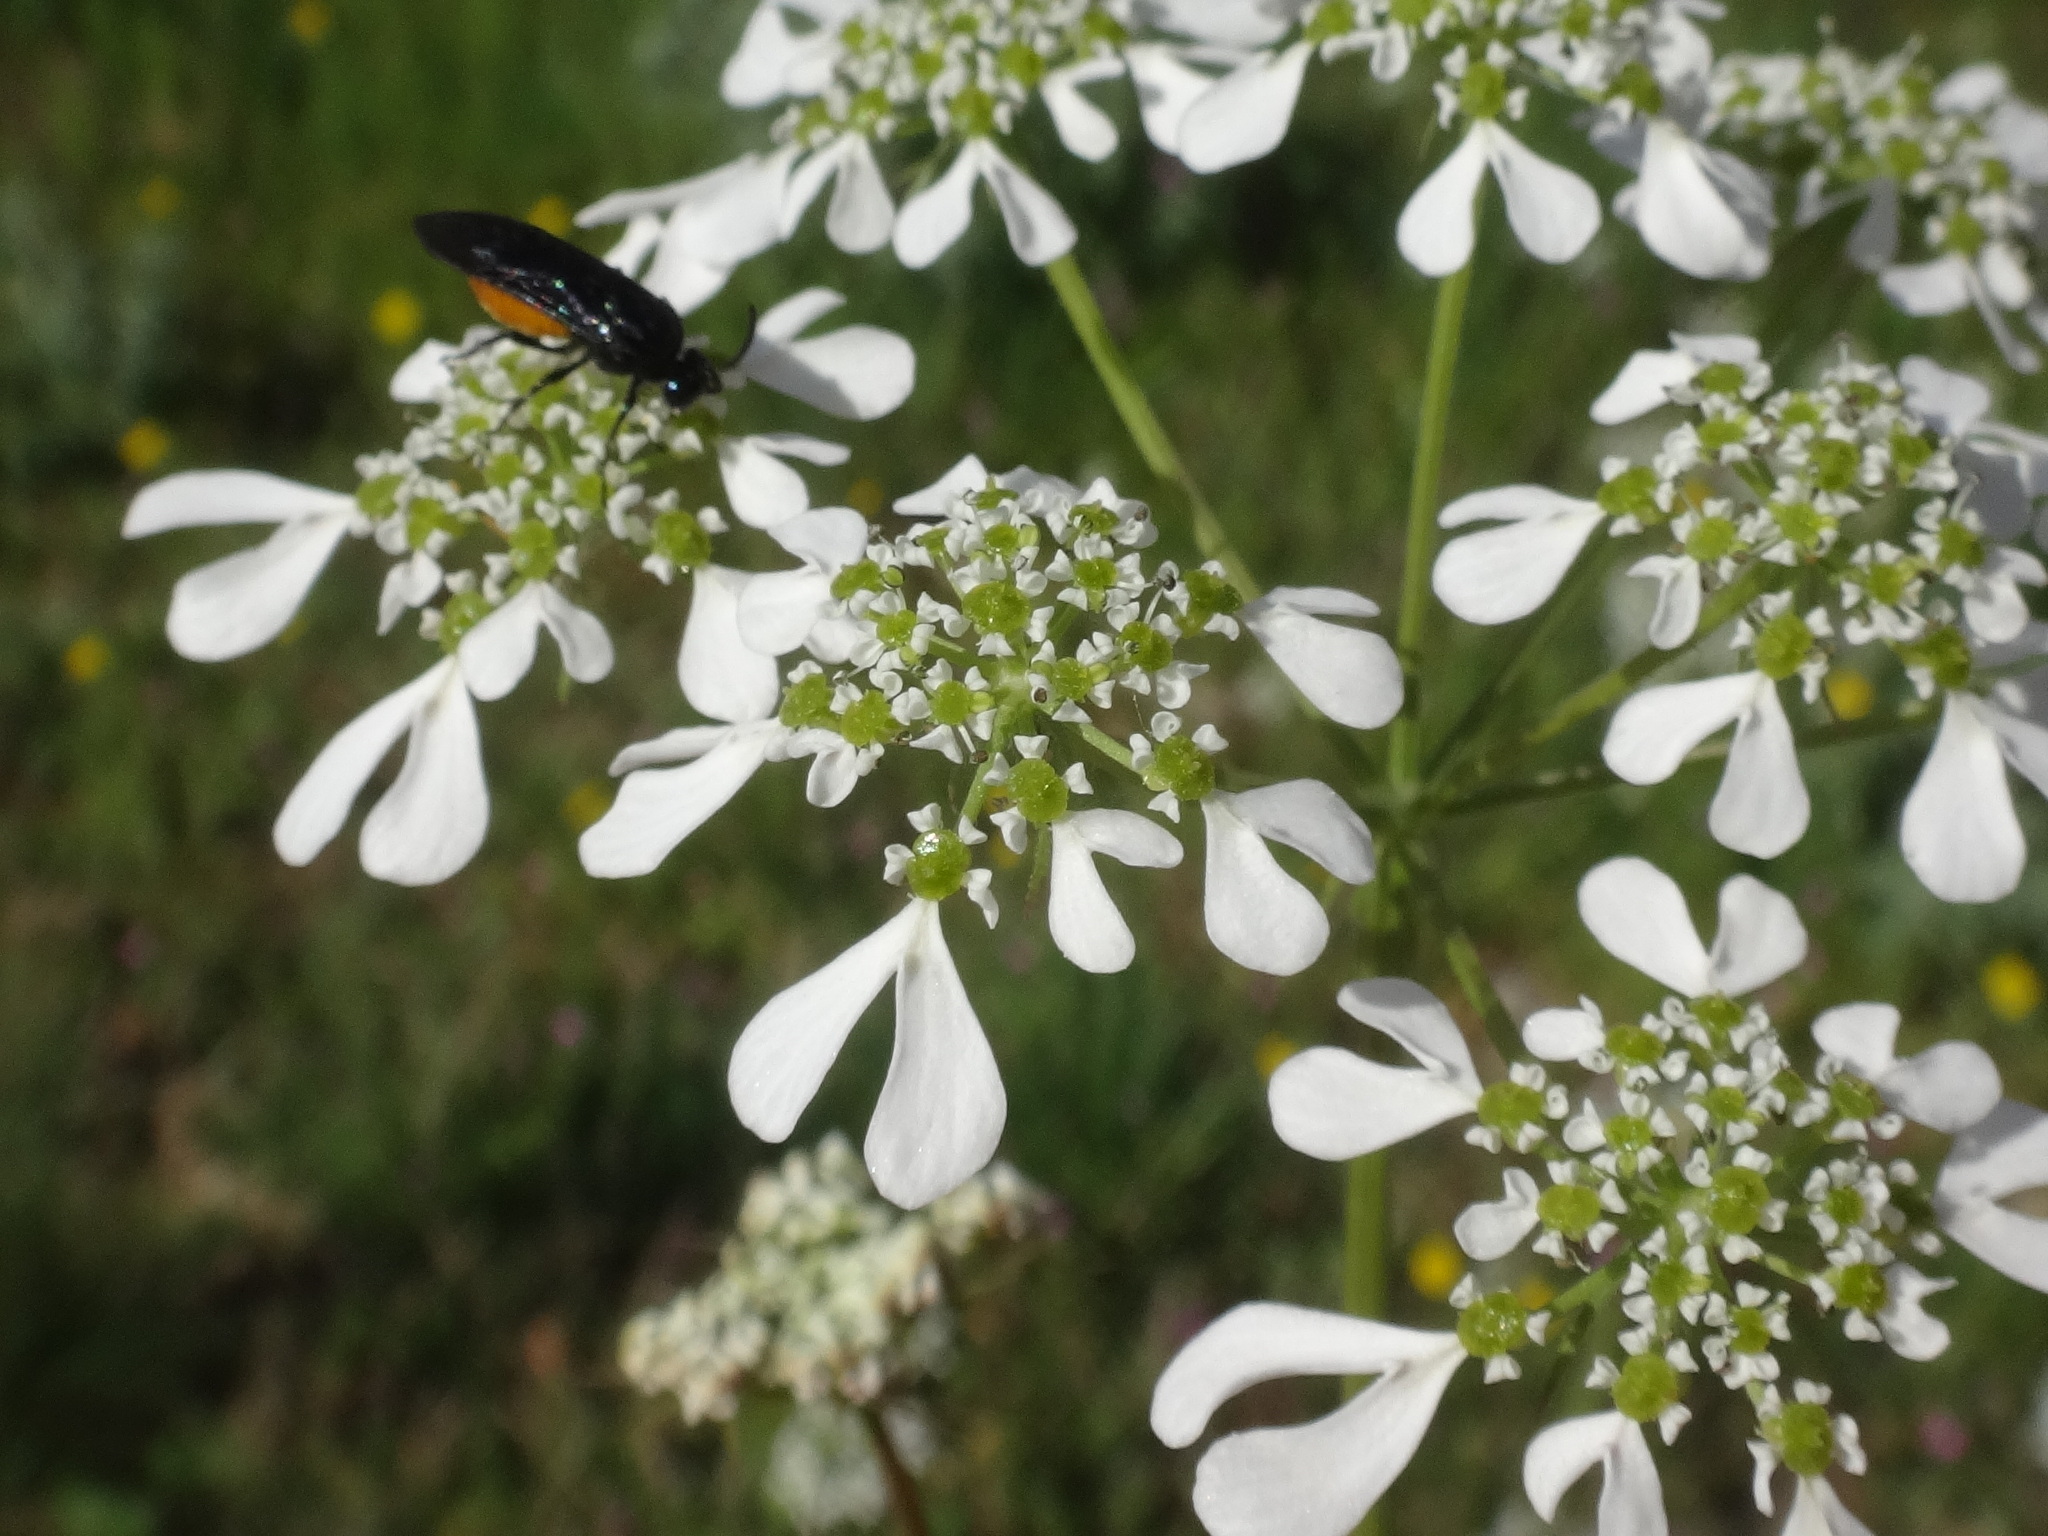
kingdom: Plantae
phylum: Tracheophyta
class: Magnoliopsida
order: Apiales
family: Apiaceae
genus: Tordylium
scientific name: Tordylium apulum
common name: Mediterranean hartwort
